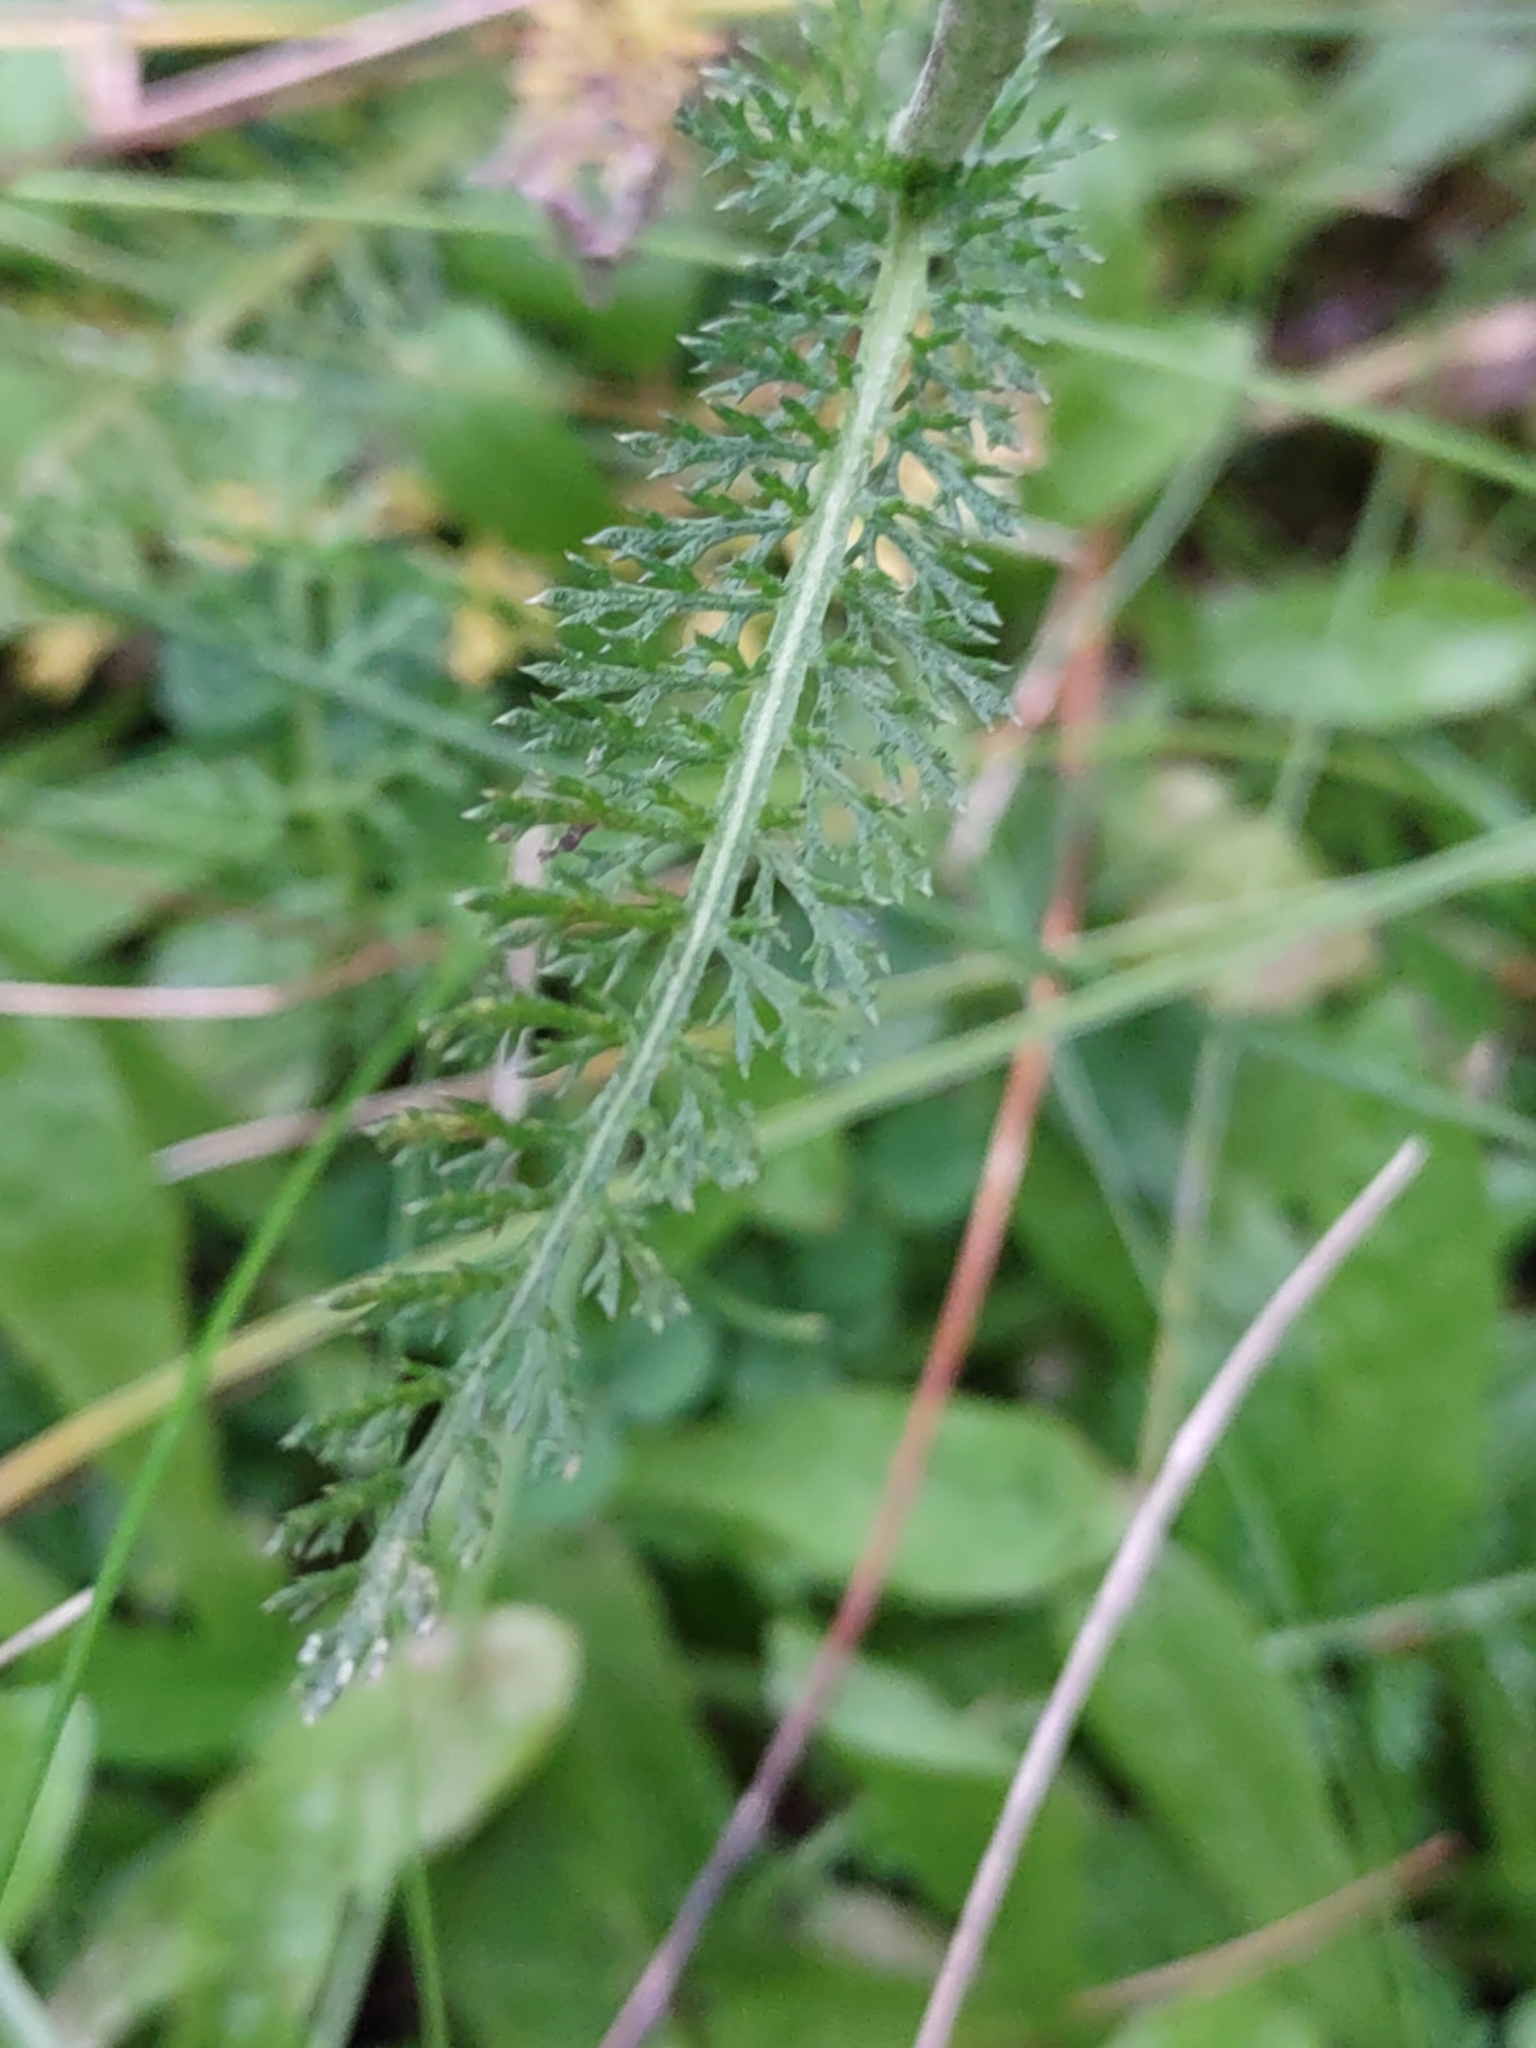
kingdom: Plantae
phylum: Tracheophyta
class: Magnoliopsida
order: Asterales
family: Asteraceae
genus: Achillea
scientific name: Achillea millefolium
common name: Yarrow
